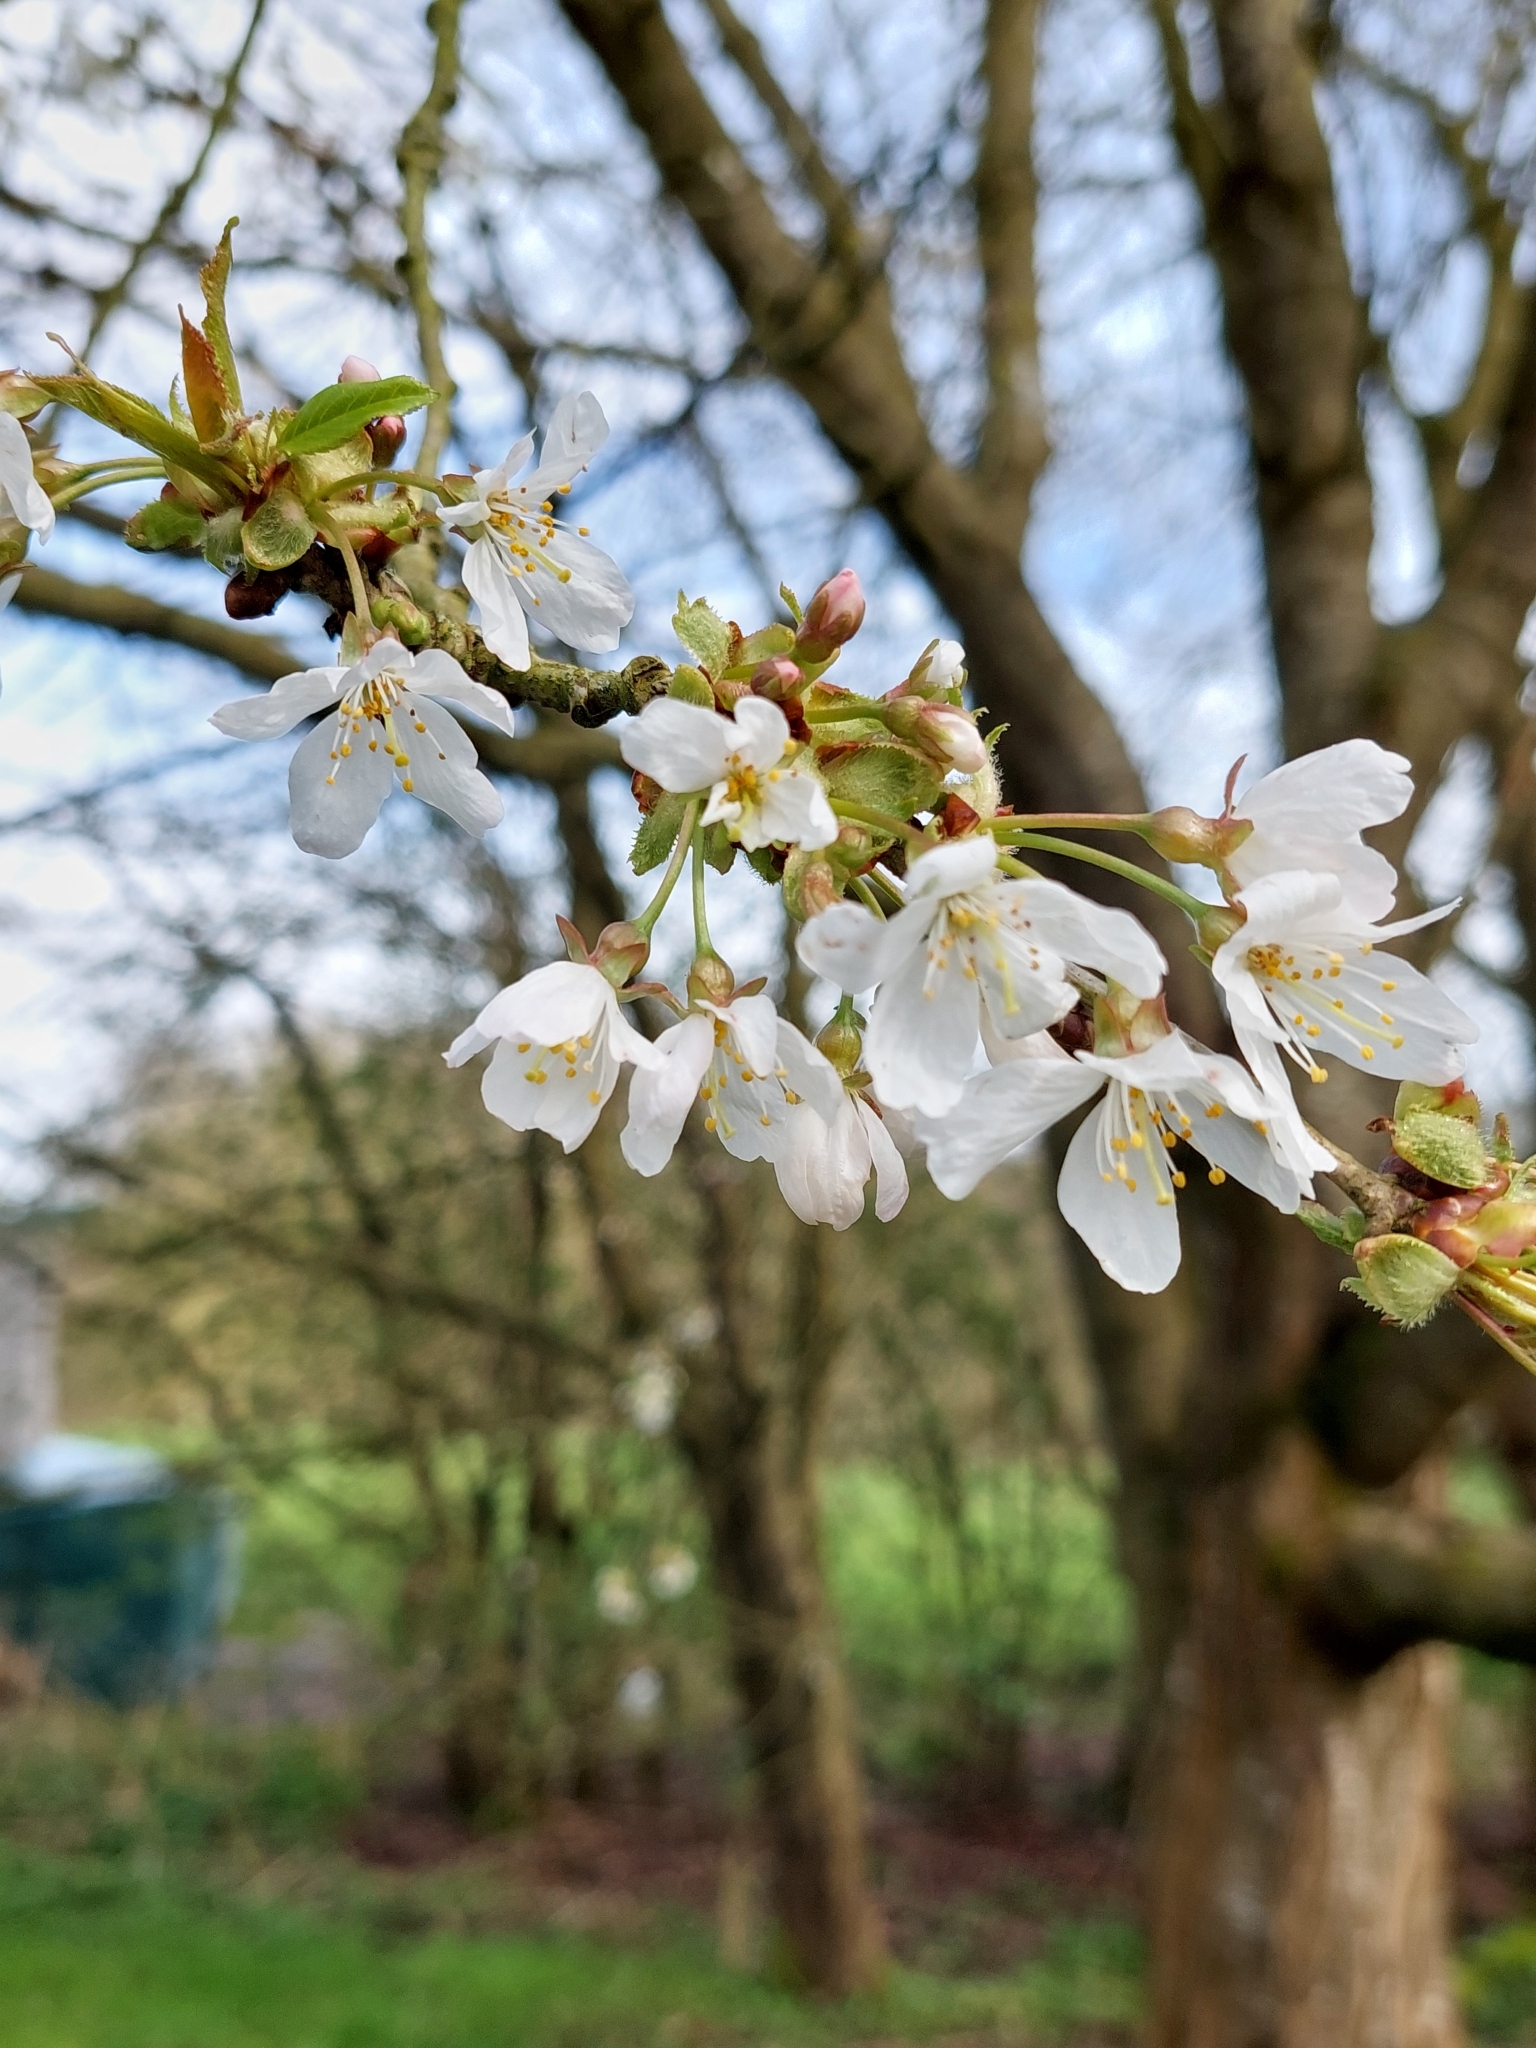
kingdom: Plantae
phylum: Tracheophyta
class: Magnoliopsida
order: Rosales
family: Rosaceae
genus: Prunus
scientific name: Prunus avium
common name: Sweet cherry
